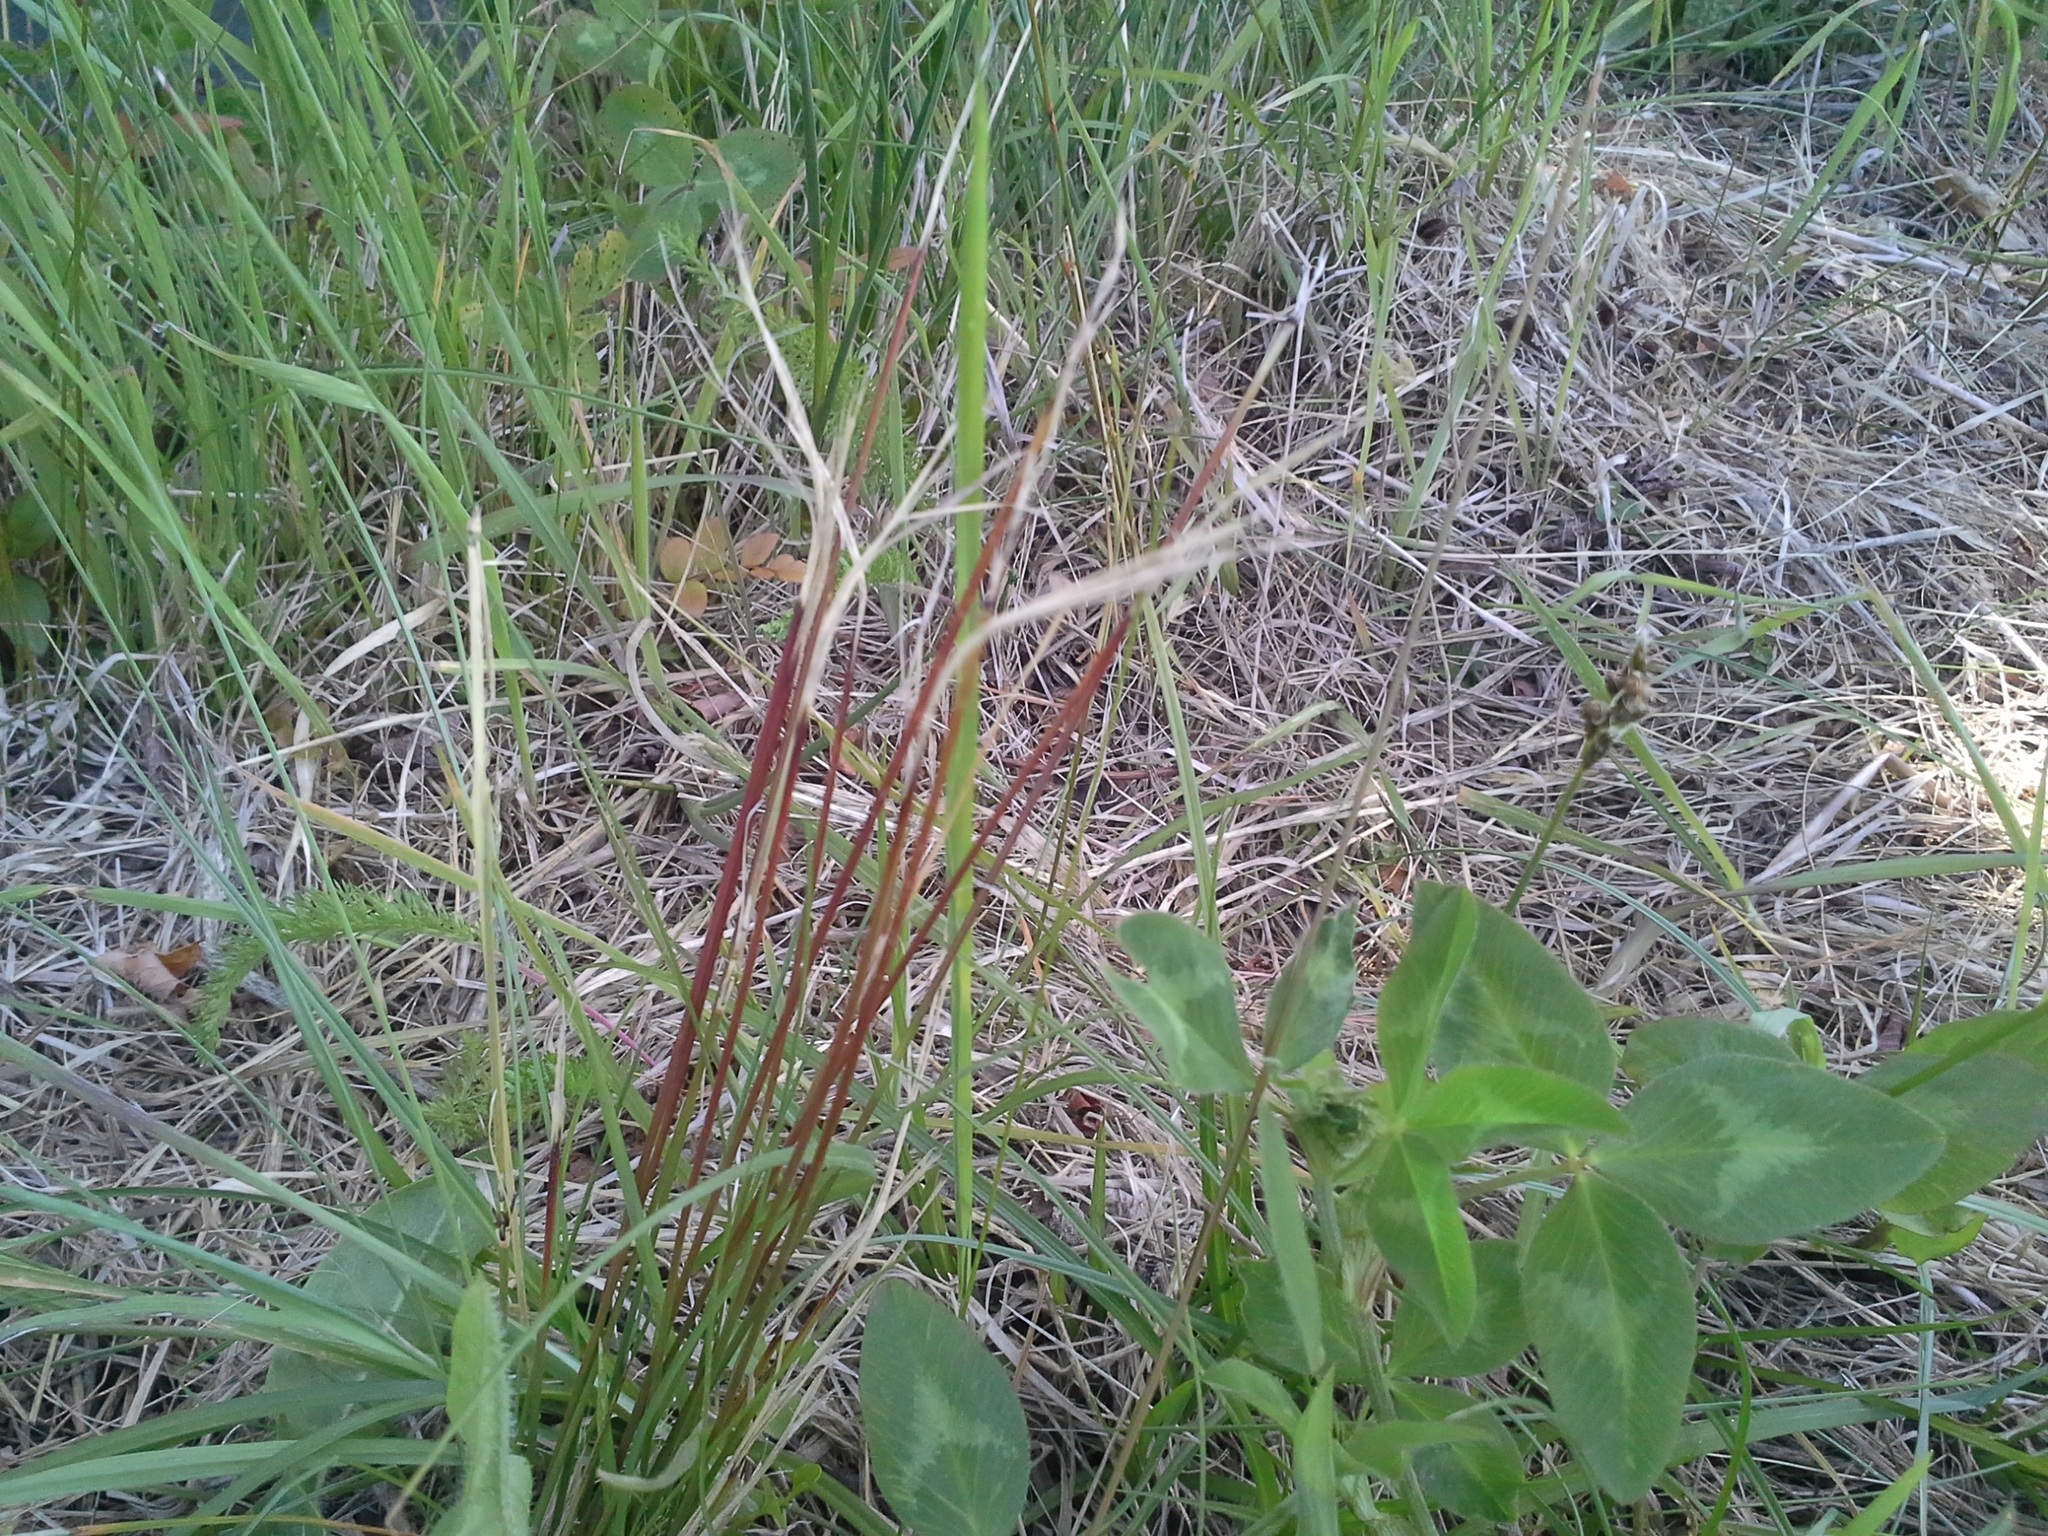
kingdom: Plantae
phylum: Tracheophyta
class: Liliopsida
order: Poales
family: Cyperaceae
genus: Schoenus
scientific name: Schoenus pauciflorus
